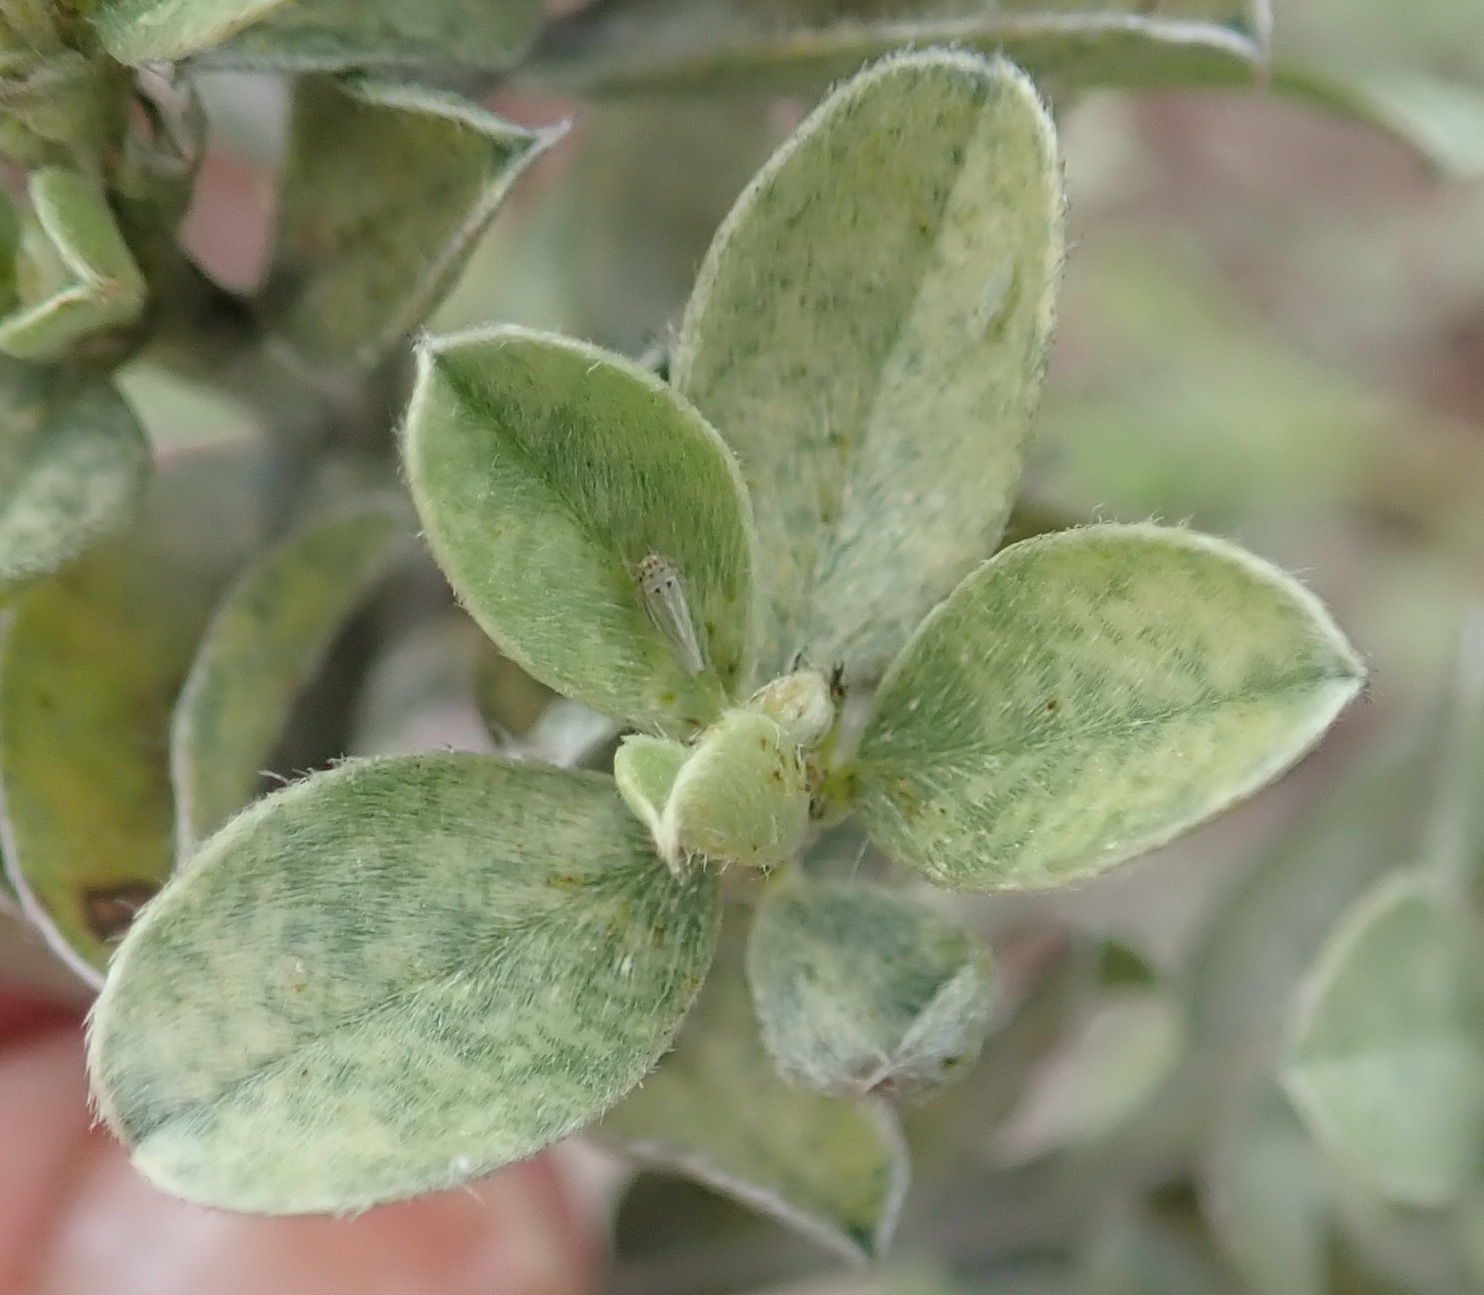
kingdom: Plantae
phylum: Tracheophyta
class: Magnoliopsida
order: Fabales
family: Fabaceae
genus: Podalyria
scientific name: Podalyria myrtillifolia
